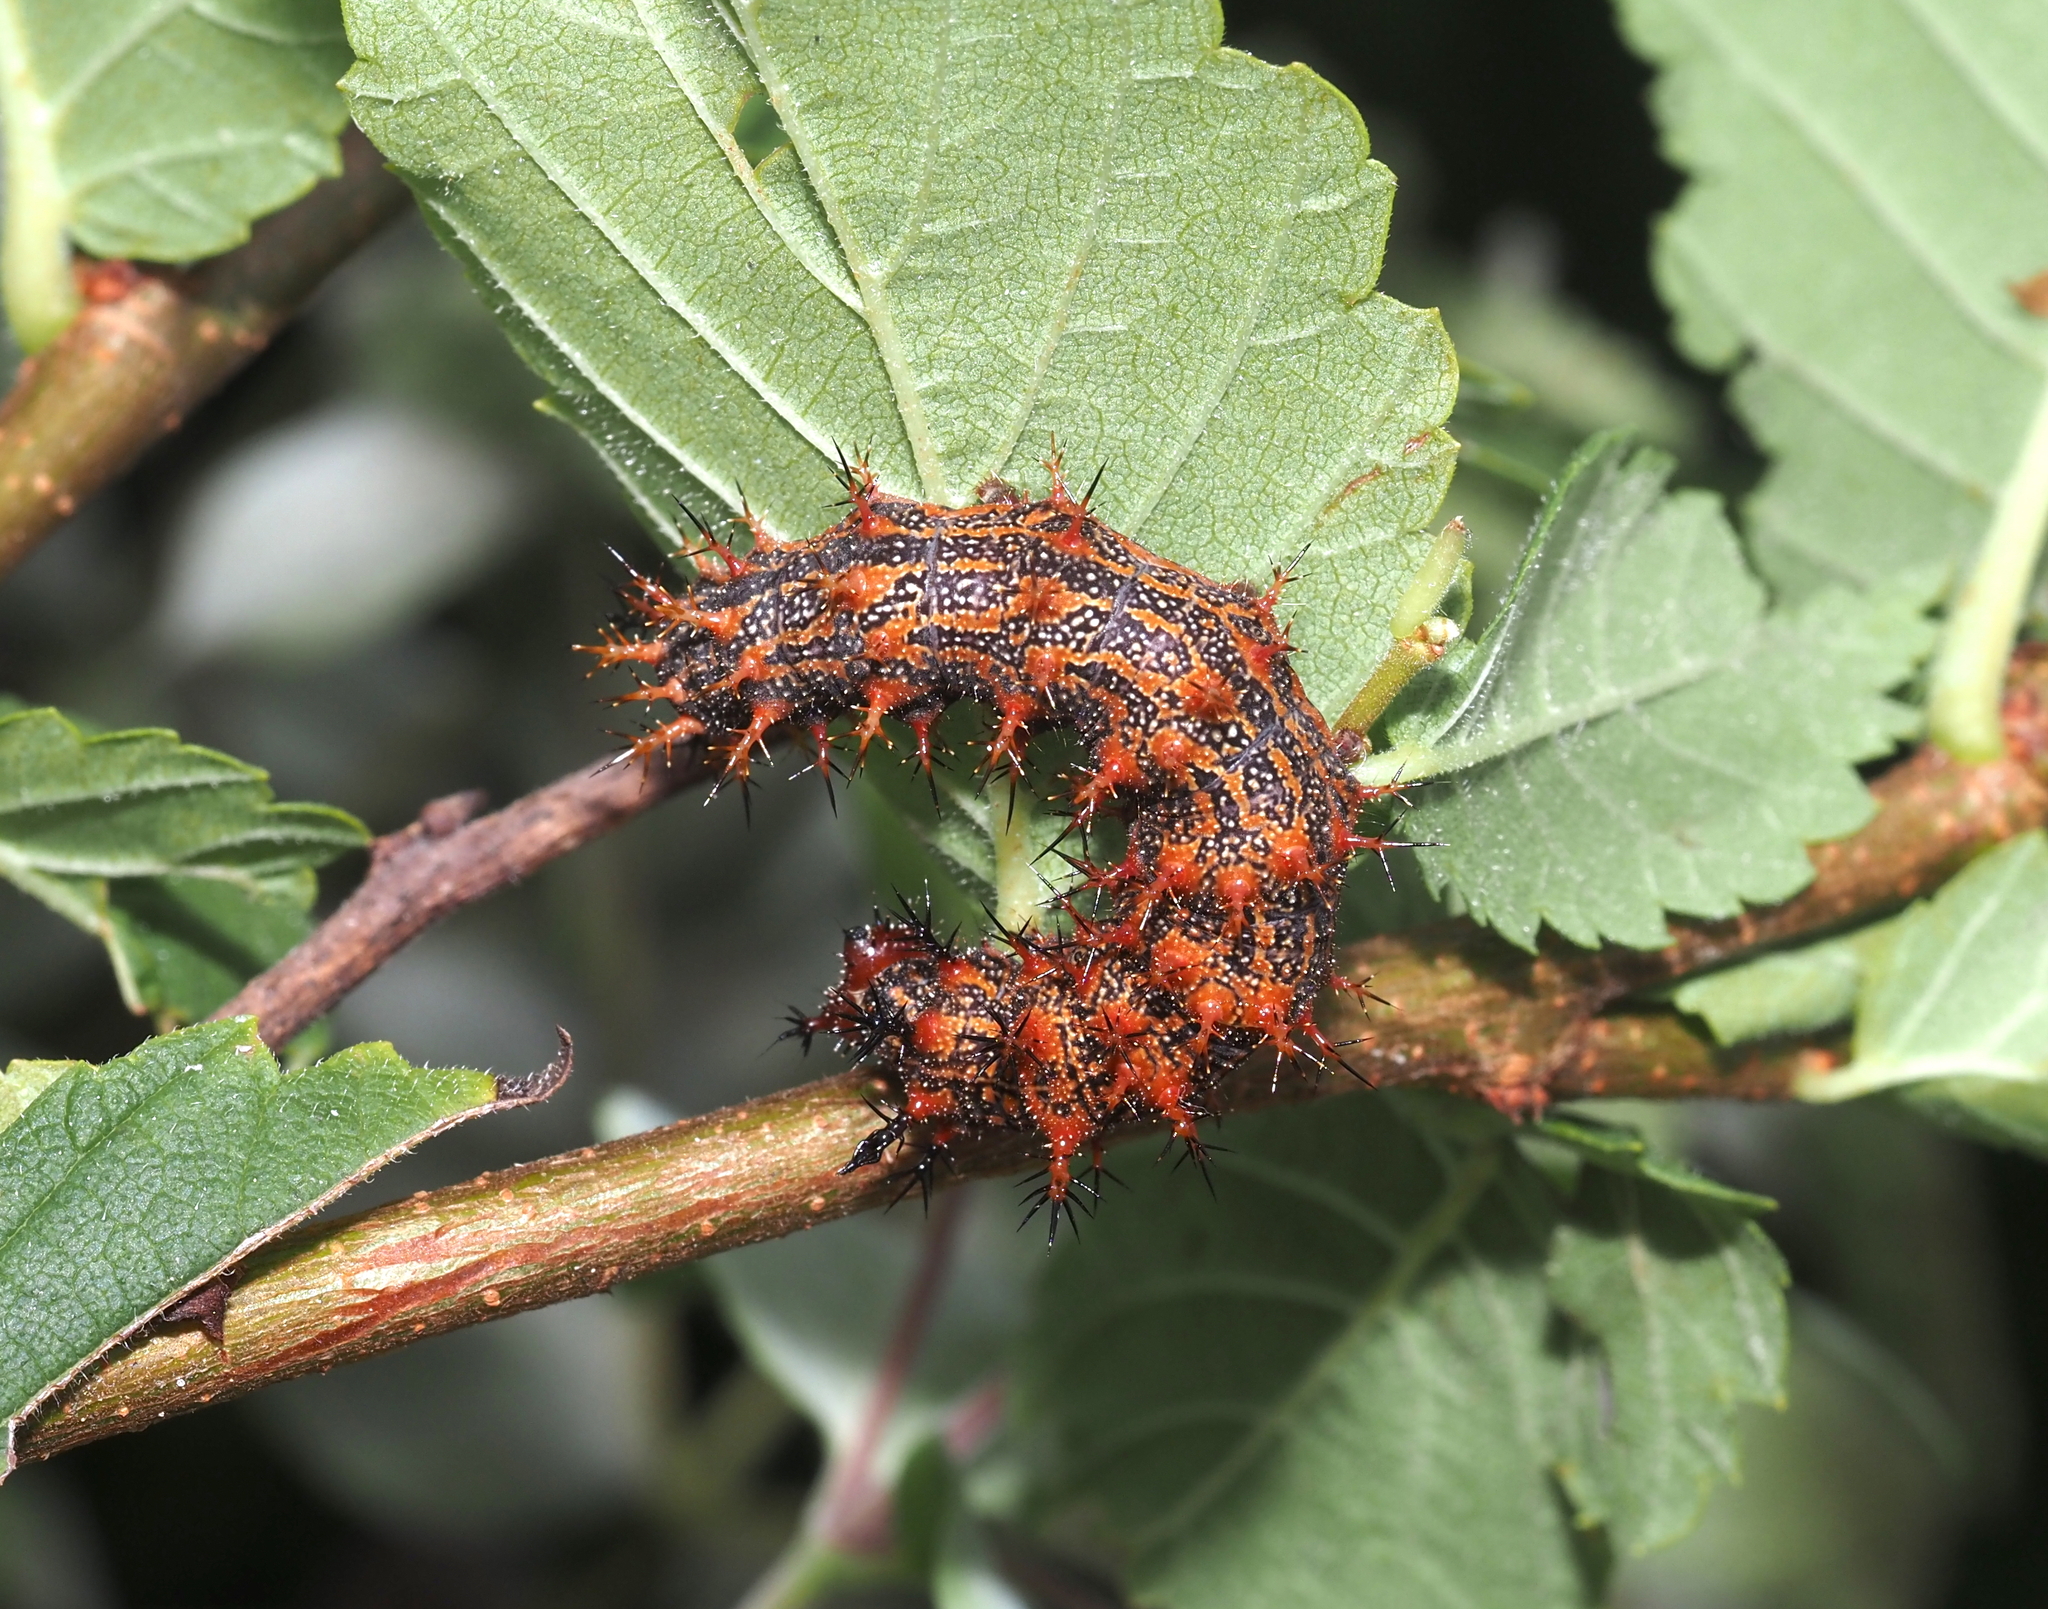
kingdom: Animalia
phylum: Arthropoda
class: Insecta
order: Lepidoptera
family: Nymphalidae
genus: Polygonia
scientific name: Polygonia interrogationis
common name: Question mark
